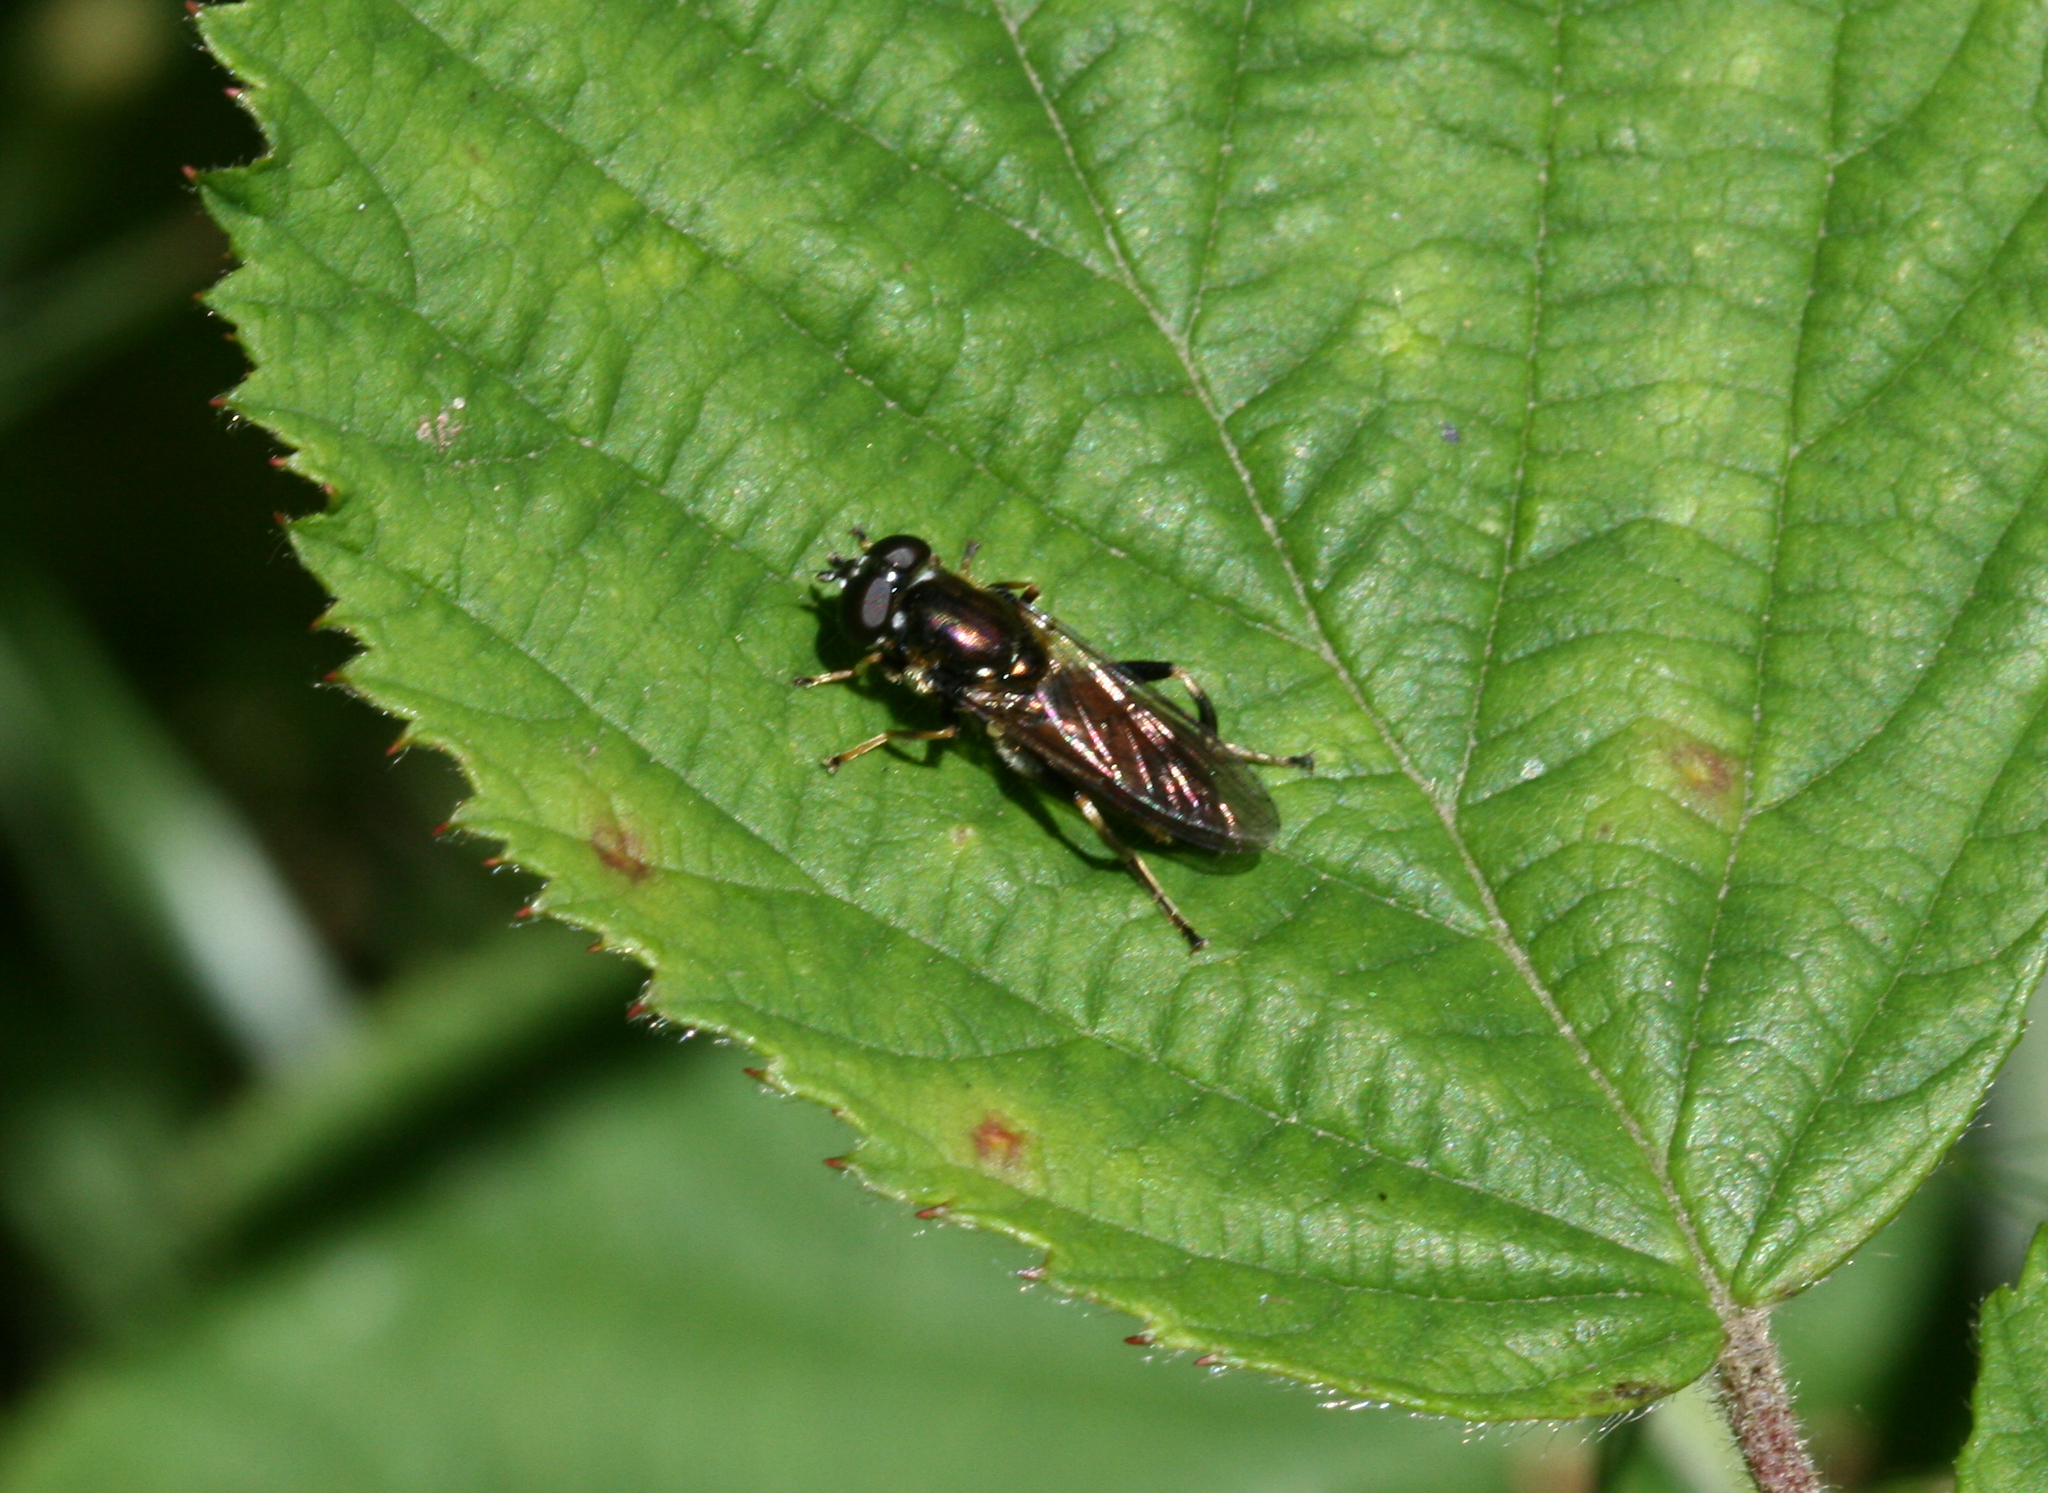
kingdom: Animalia
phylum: Arthropoda
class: Insecta
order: Diptera
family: Syrphidae
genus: Xylota
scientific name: Xylota segnis
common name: Brown-toed forest fly
